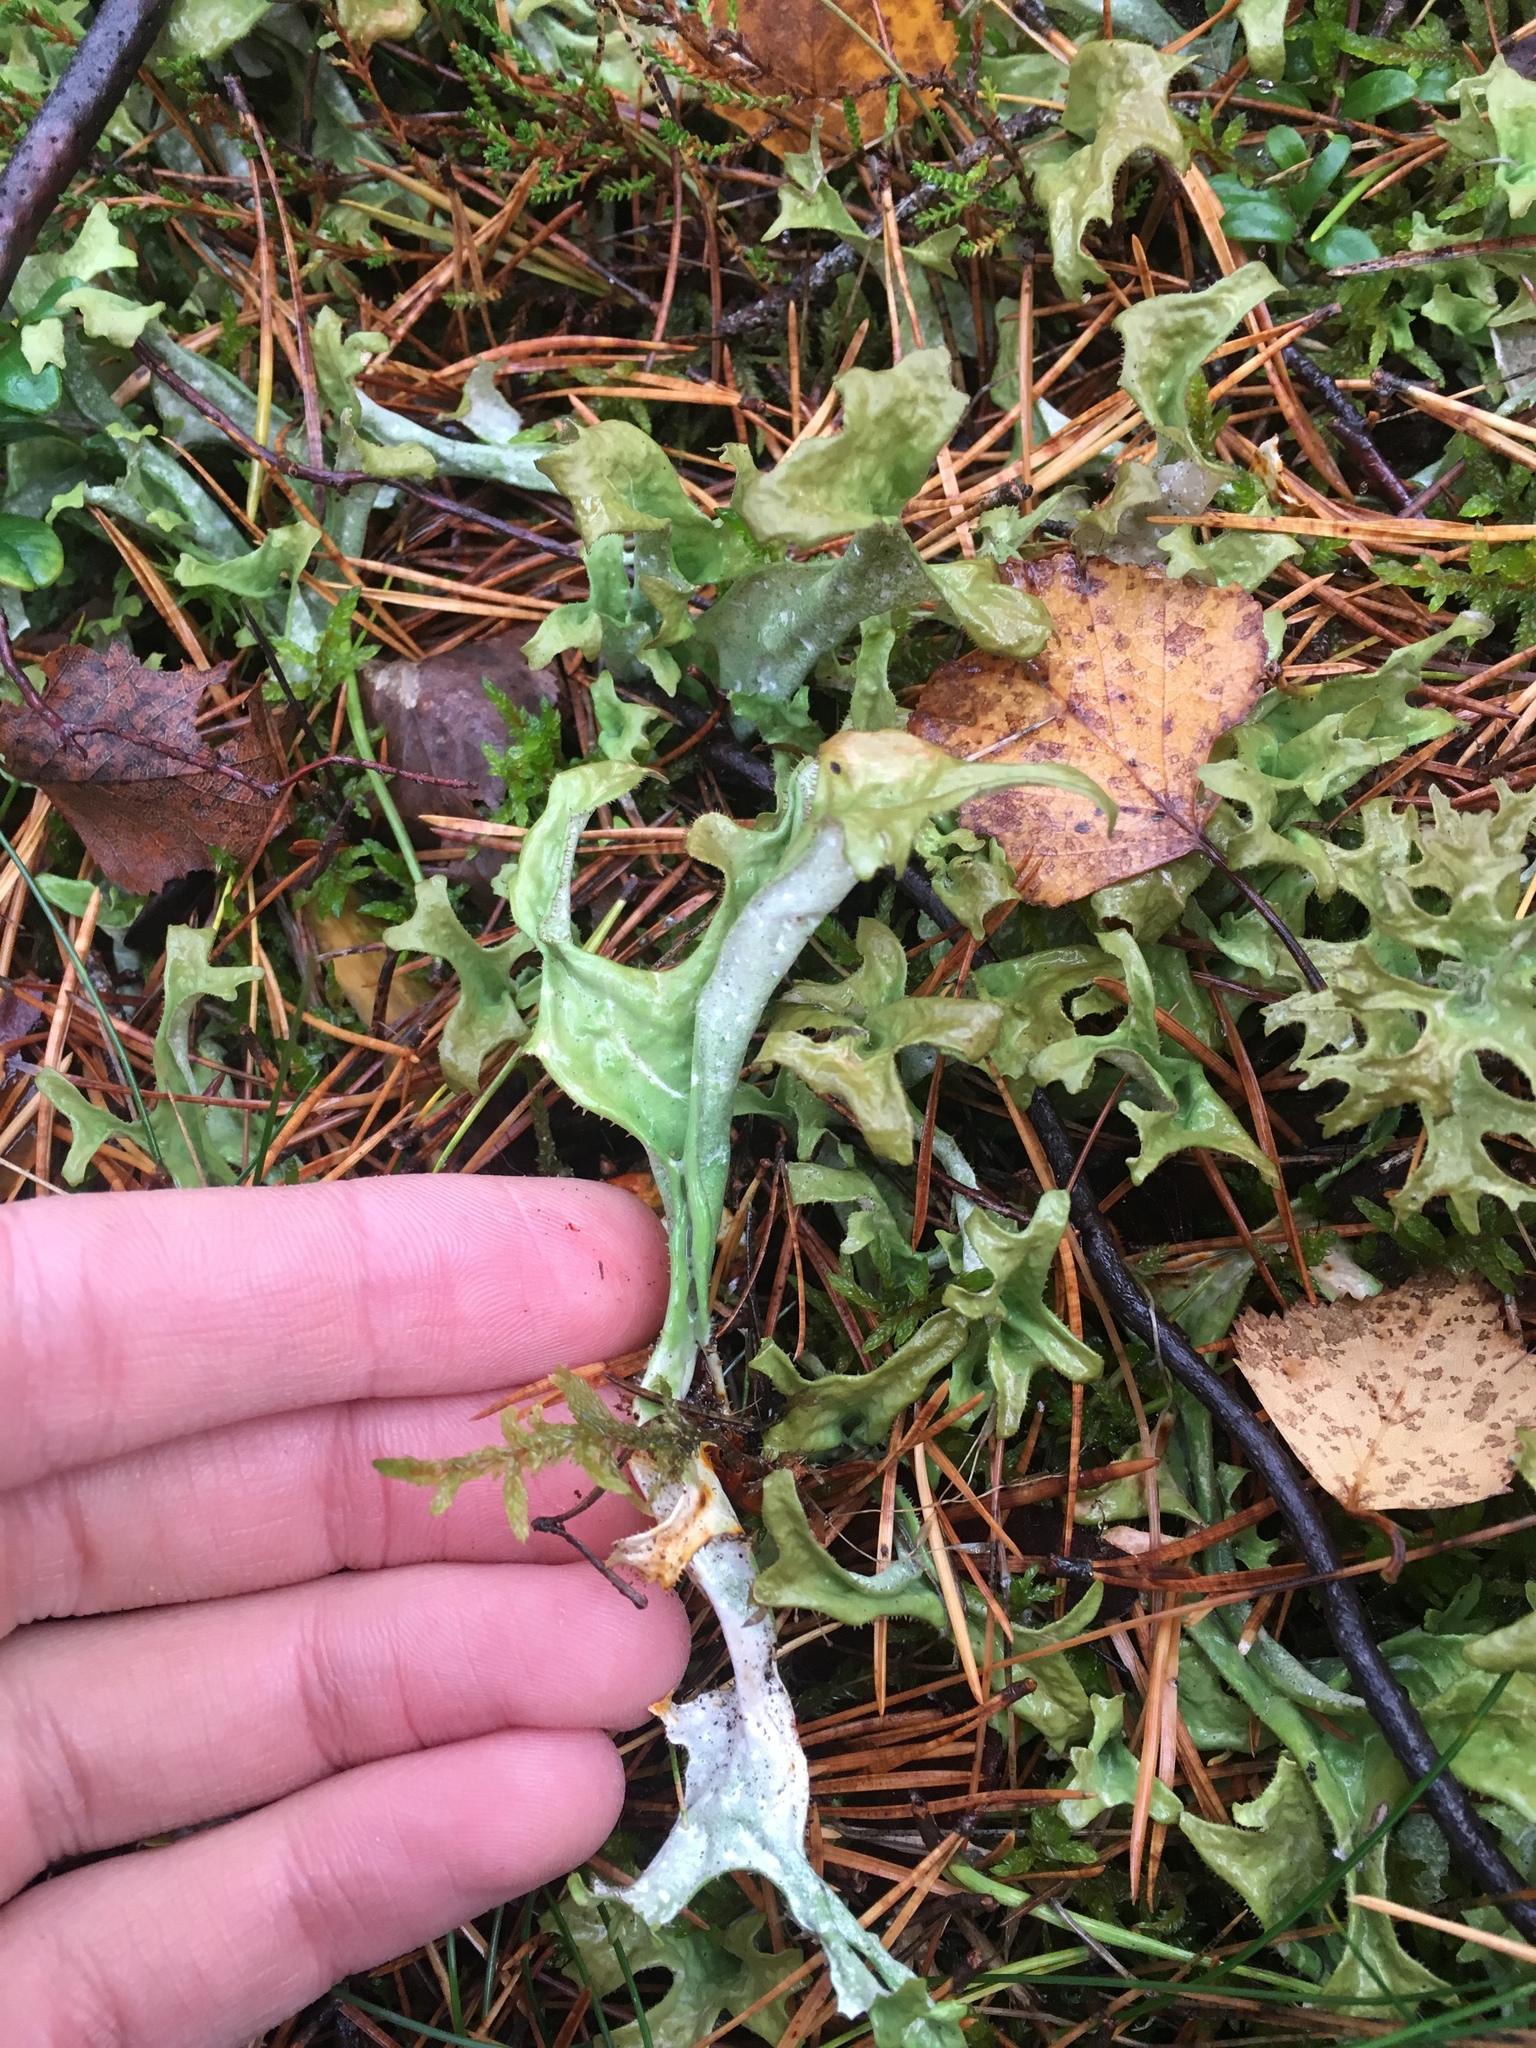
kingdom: Fungi
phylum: Ascomycota
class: Lecanoromycetes
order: Lecanorales
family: Parmeliaceae
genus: Cetraria
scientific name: Cetraria islandica
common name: Iceland lichen
